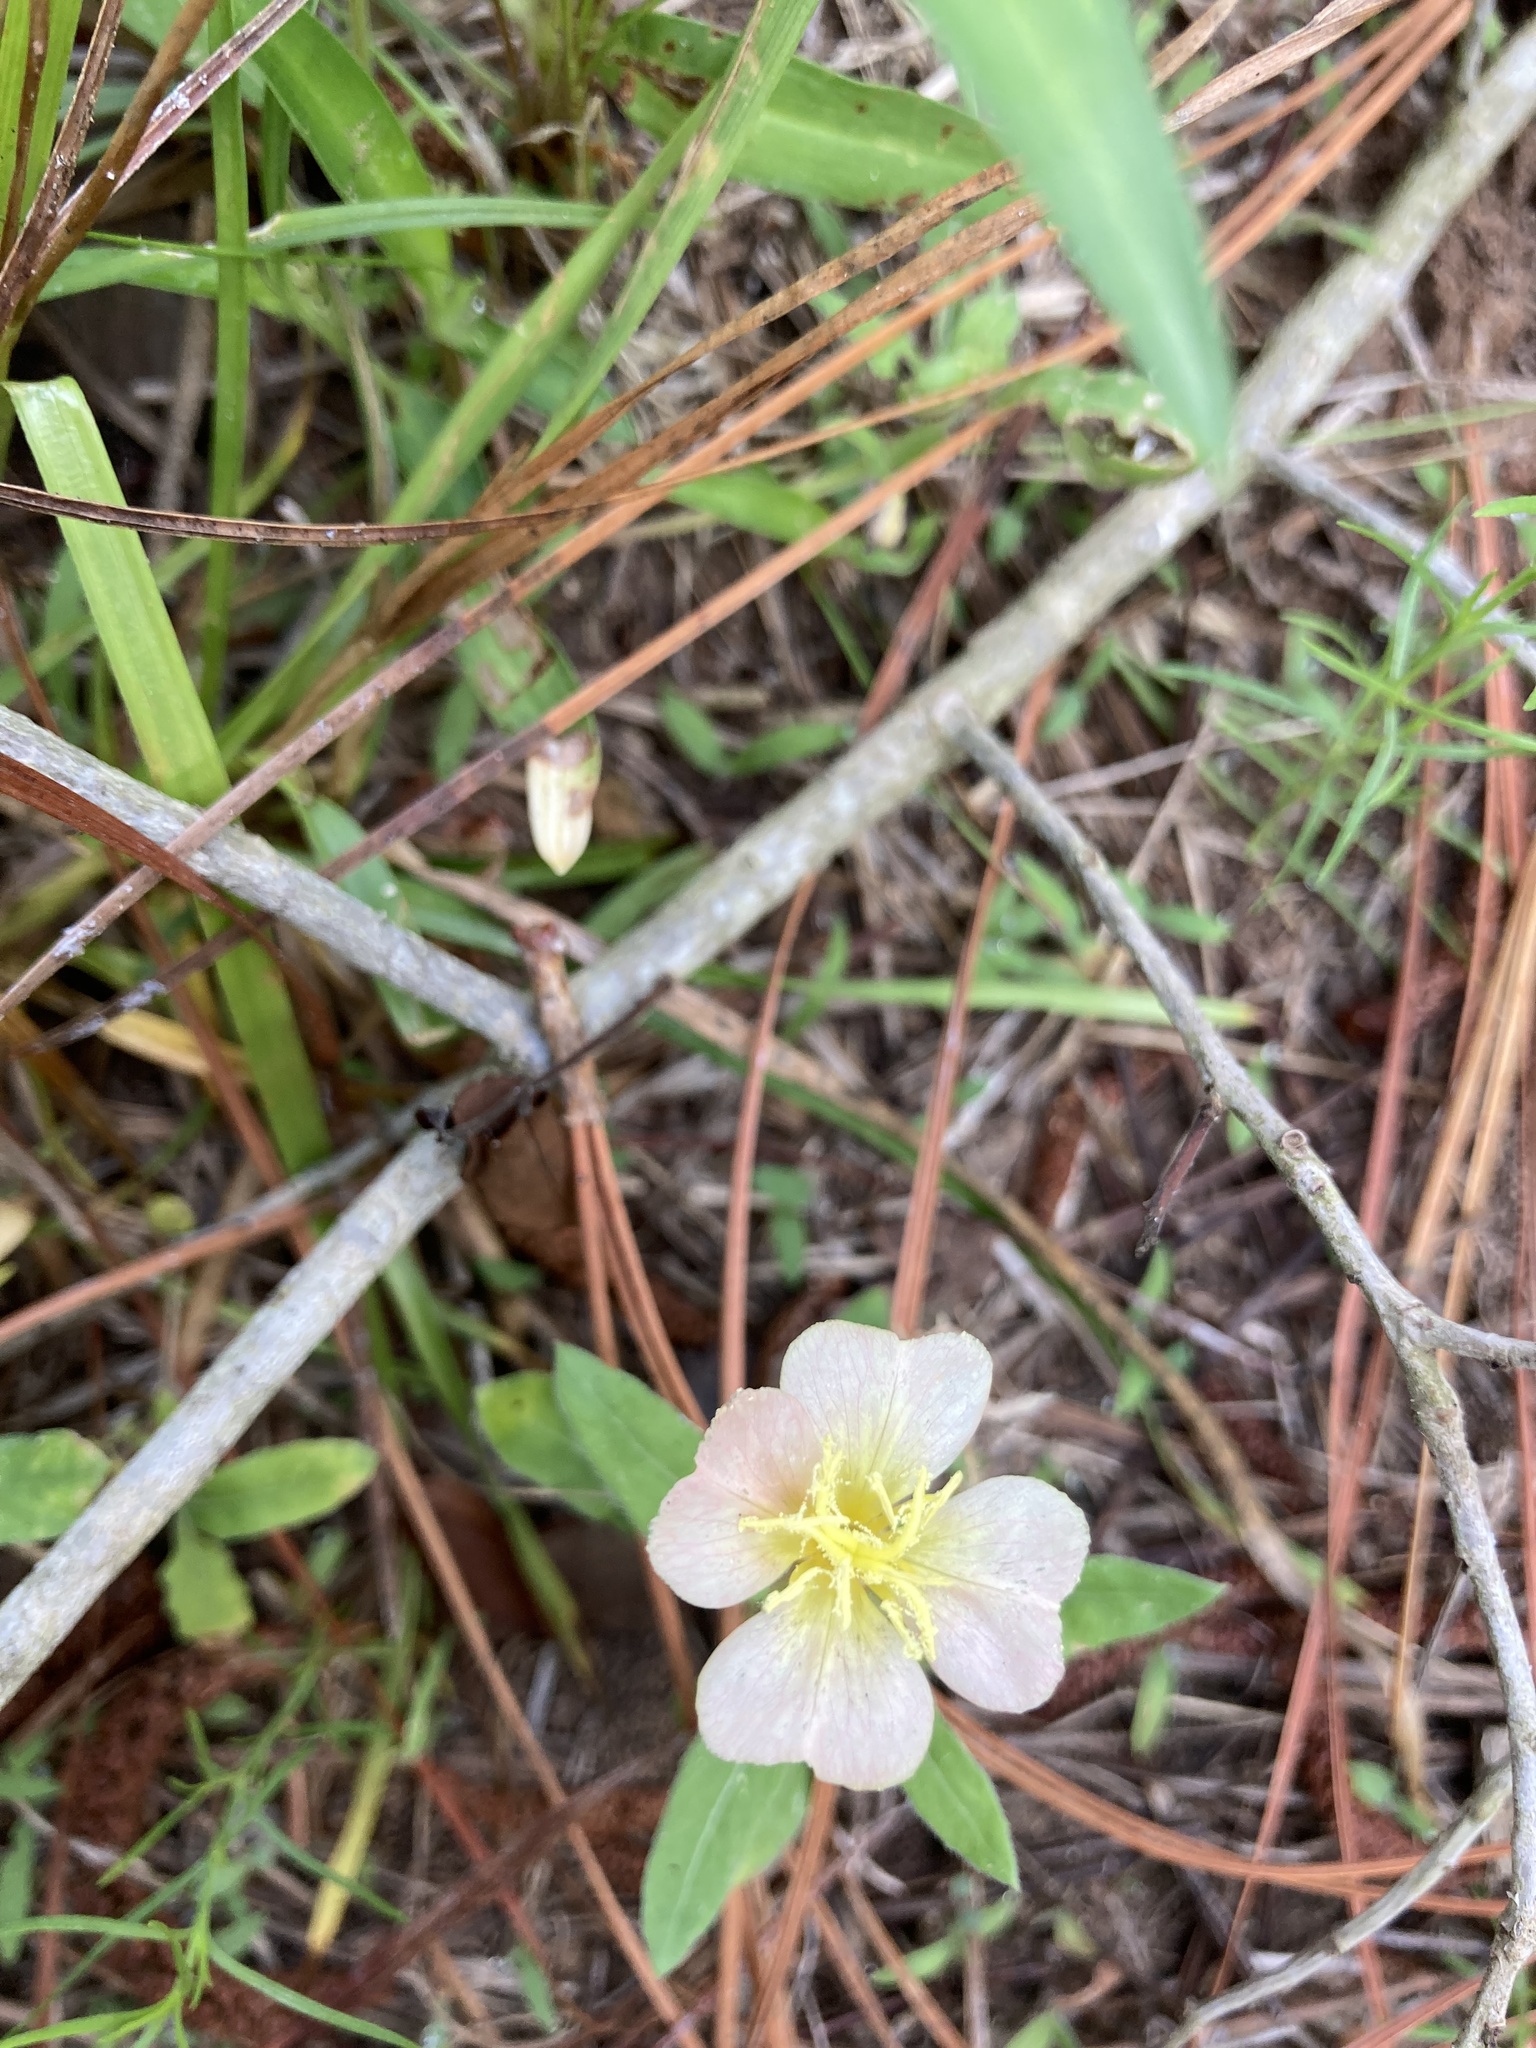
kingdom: Plantae
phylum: Tracheophyta
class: Magnoliopsida
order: Myrtales
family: Onagraceae
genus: Oenothera
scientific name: Oenothera laciniata
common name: Cut-leaved evening-primrose
